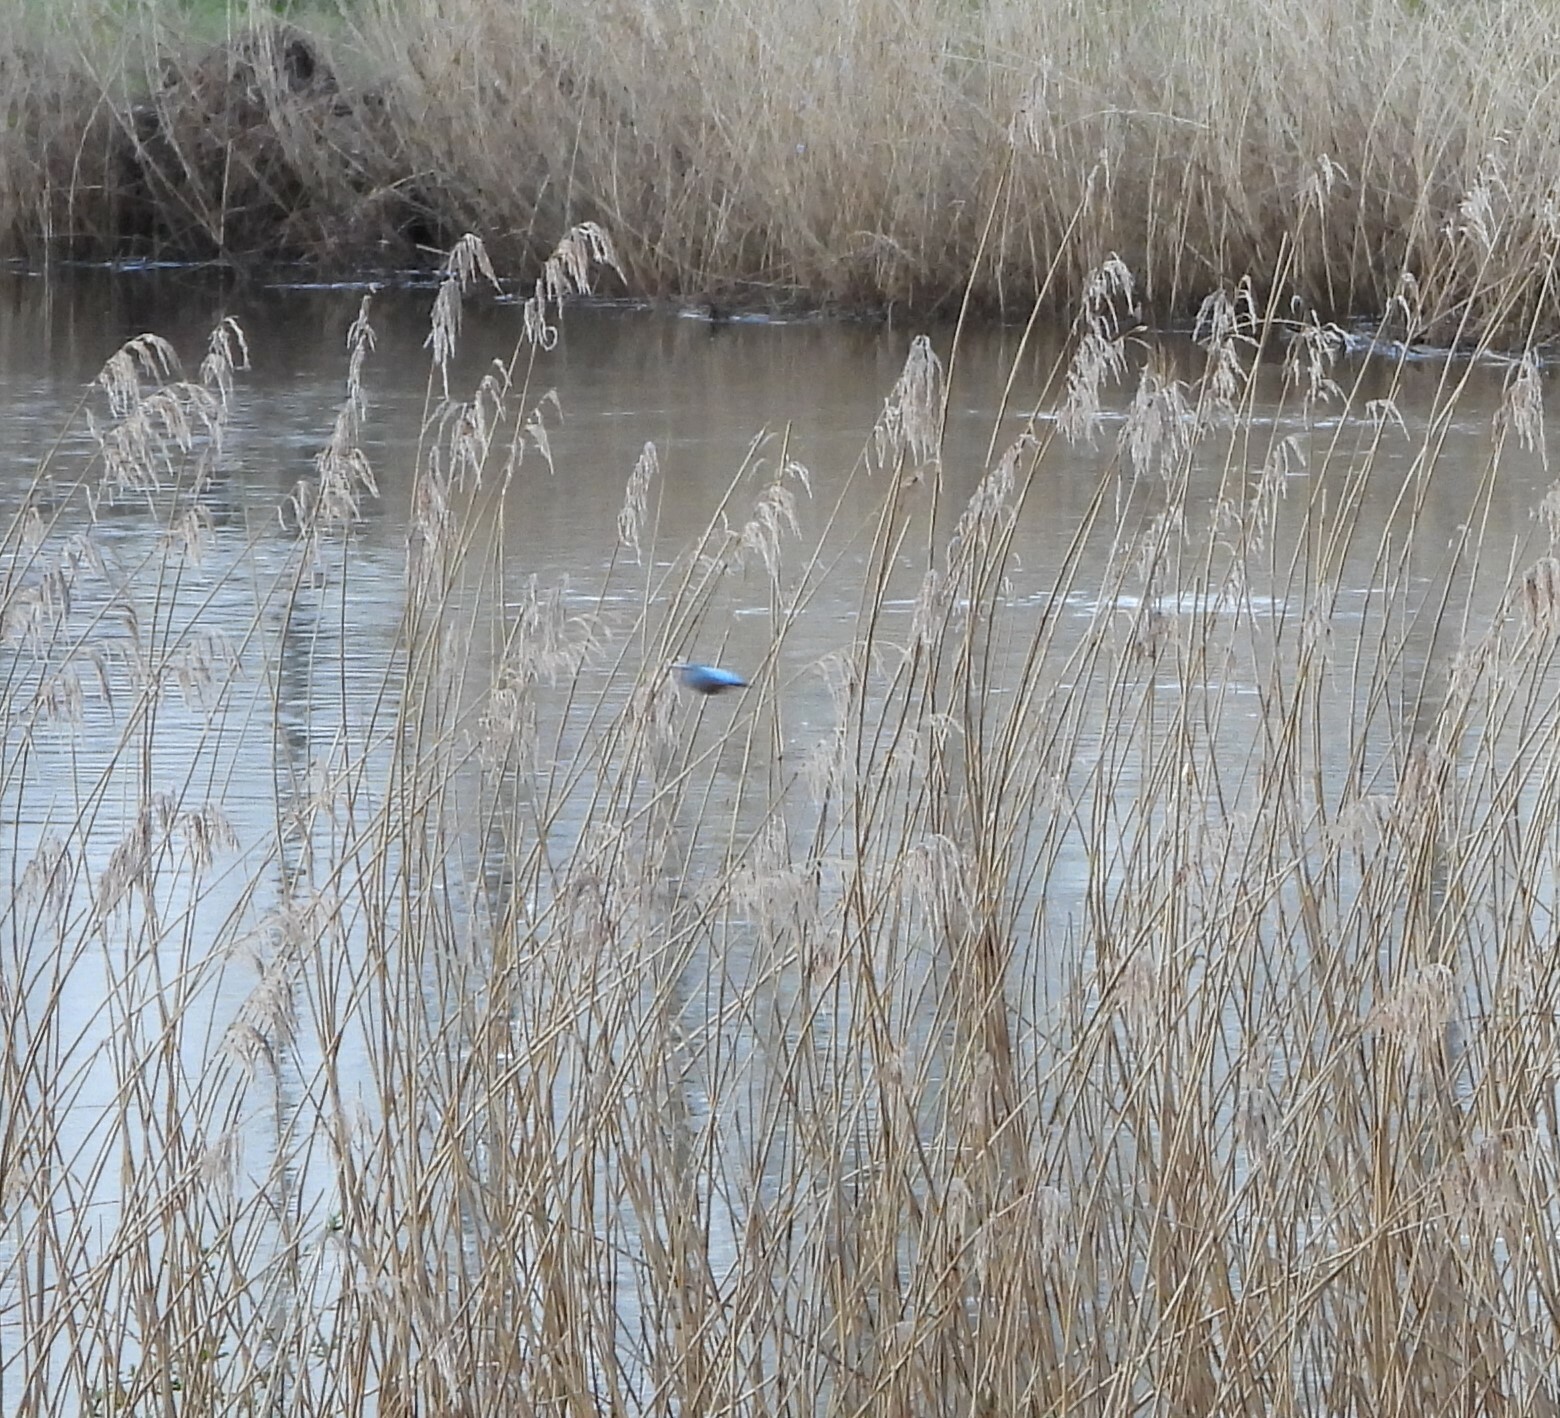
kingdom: Animalia
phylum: Chordata
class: Aves
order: Coraciiformes
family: Alcedinidae
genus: Alcedo
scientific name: Alcedo atthis
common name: Common kingfisher
